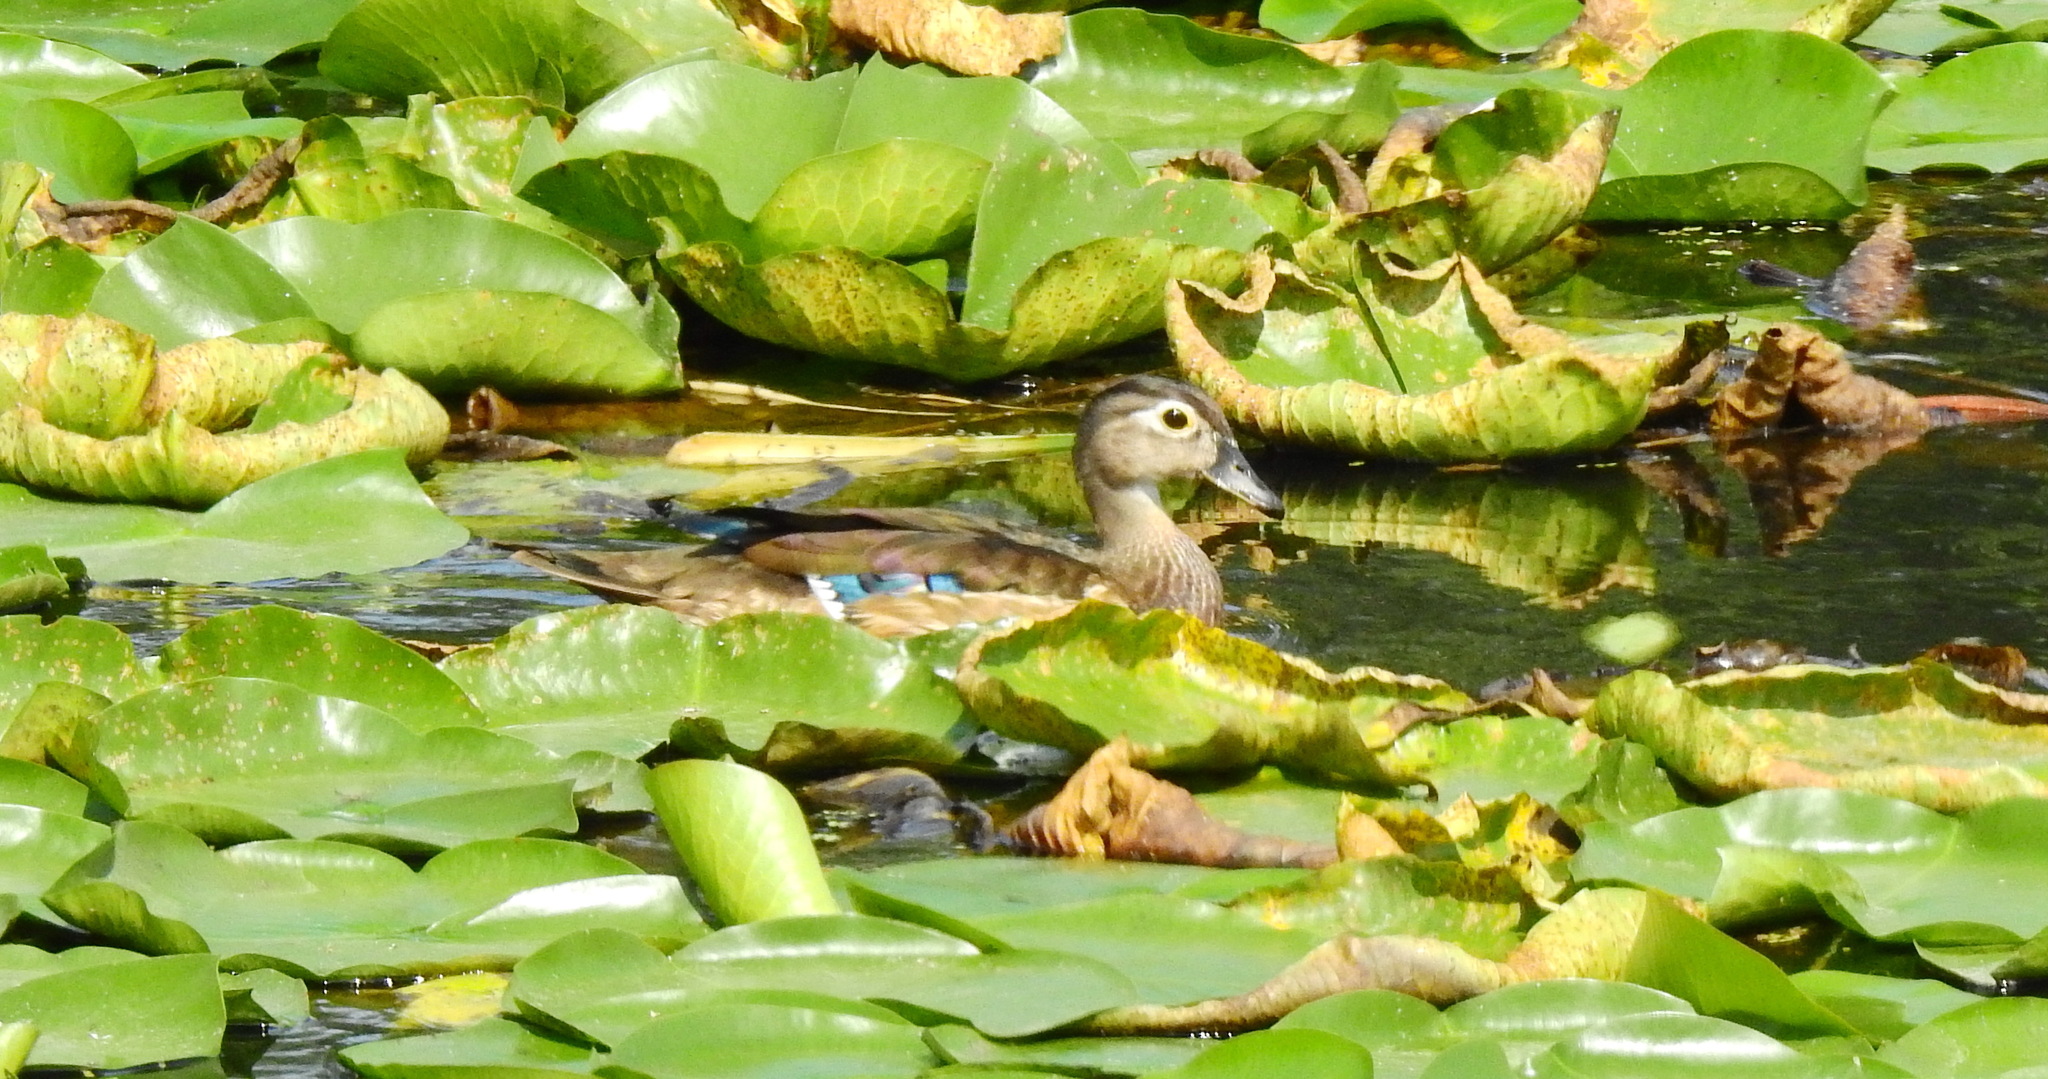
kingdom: Animalia
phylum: Chordata
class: Aves
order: Anseriformes
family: Anatidae
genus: Aix
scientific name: Aix sponsa
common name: Wood duck
